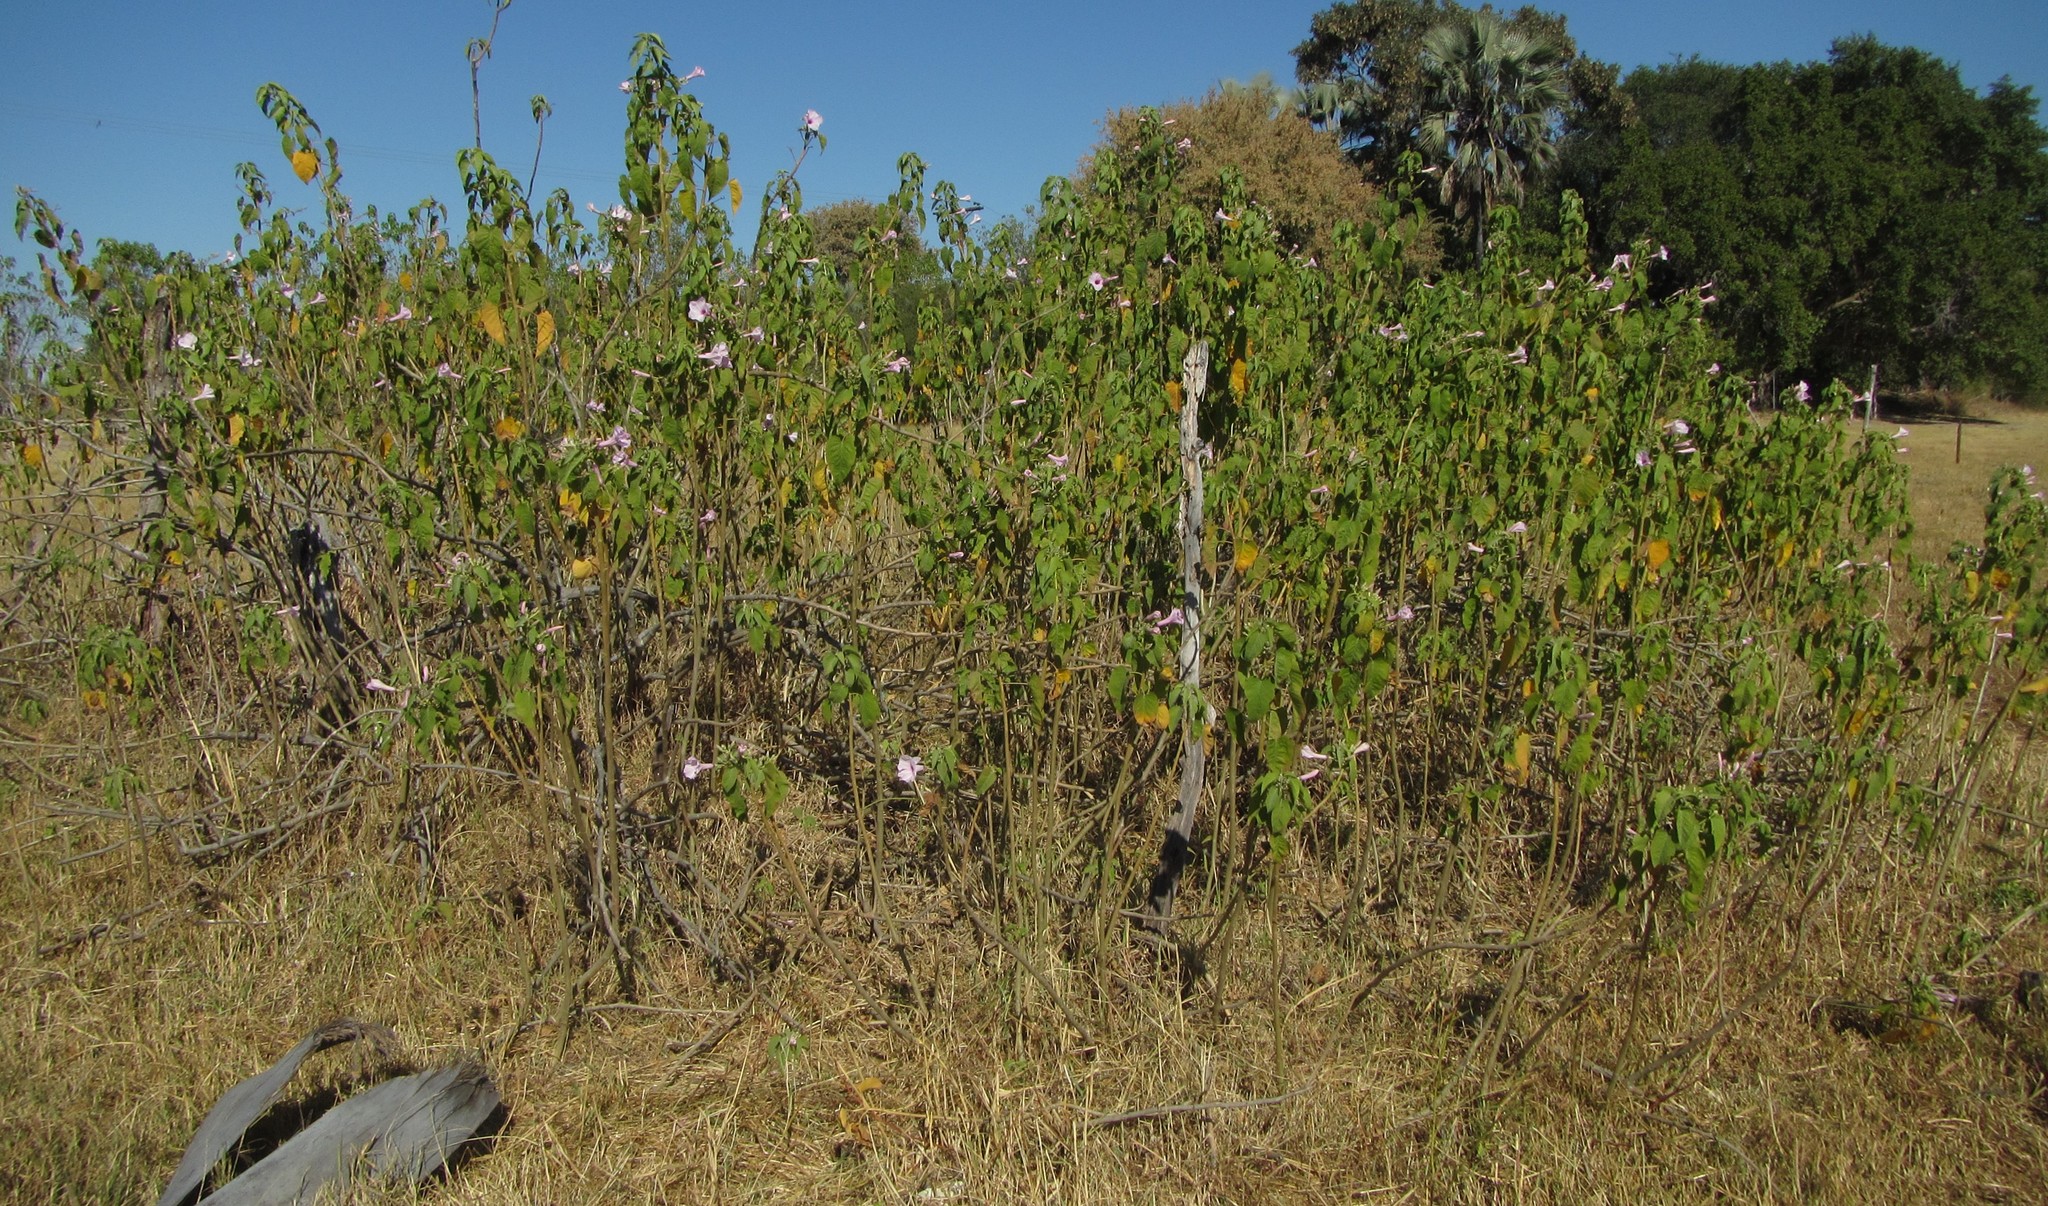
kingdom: Plantae
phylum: Tracheophyta
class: Magnoliopsida
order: Solanales
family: Convolvulaceae
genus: Ipomoea
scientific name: Ipomoea carnea
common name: Morning-glory
